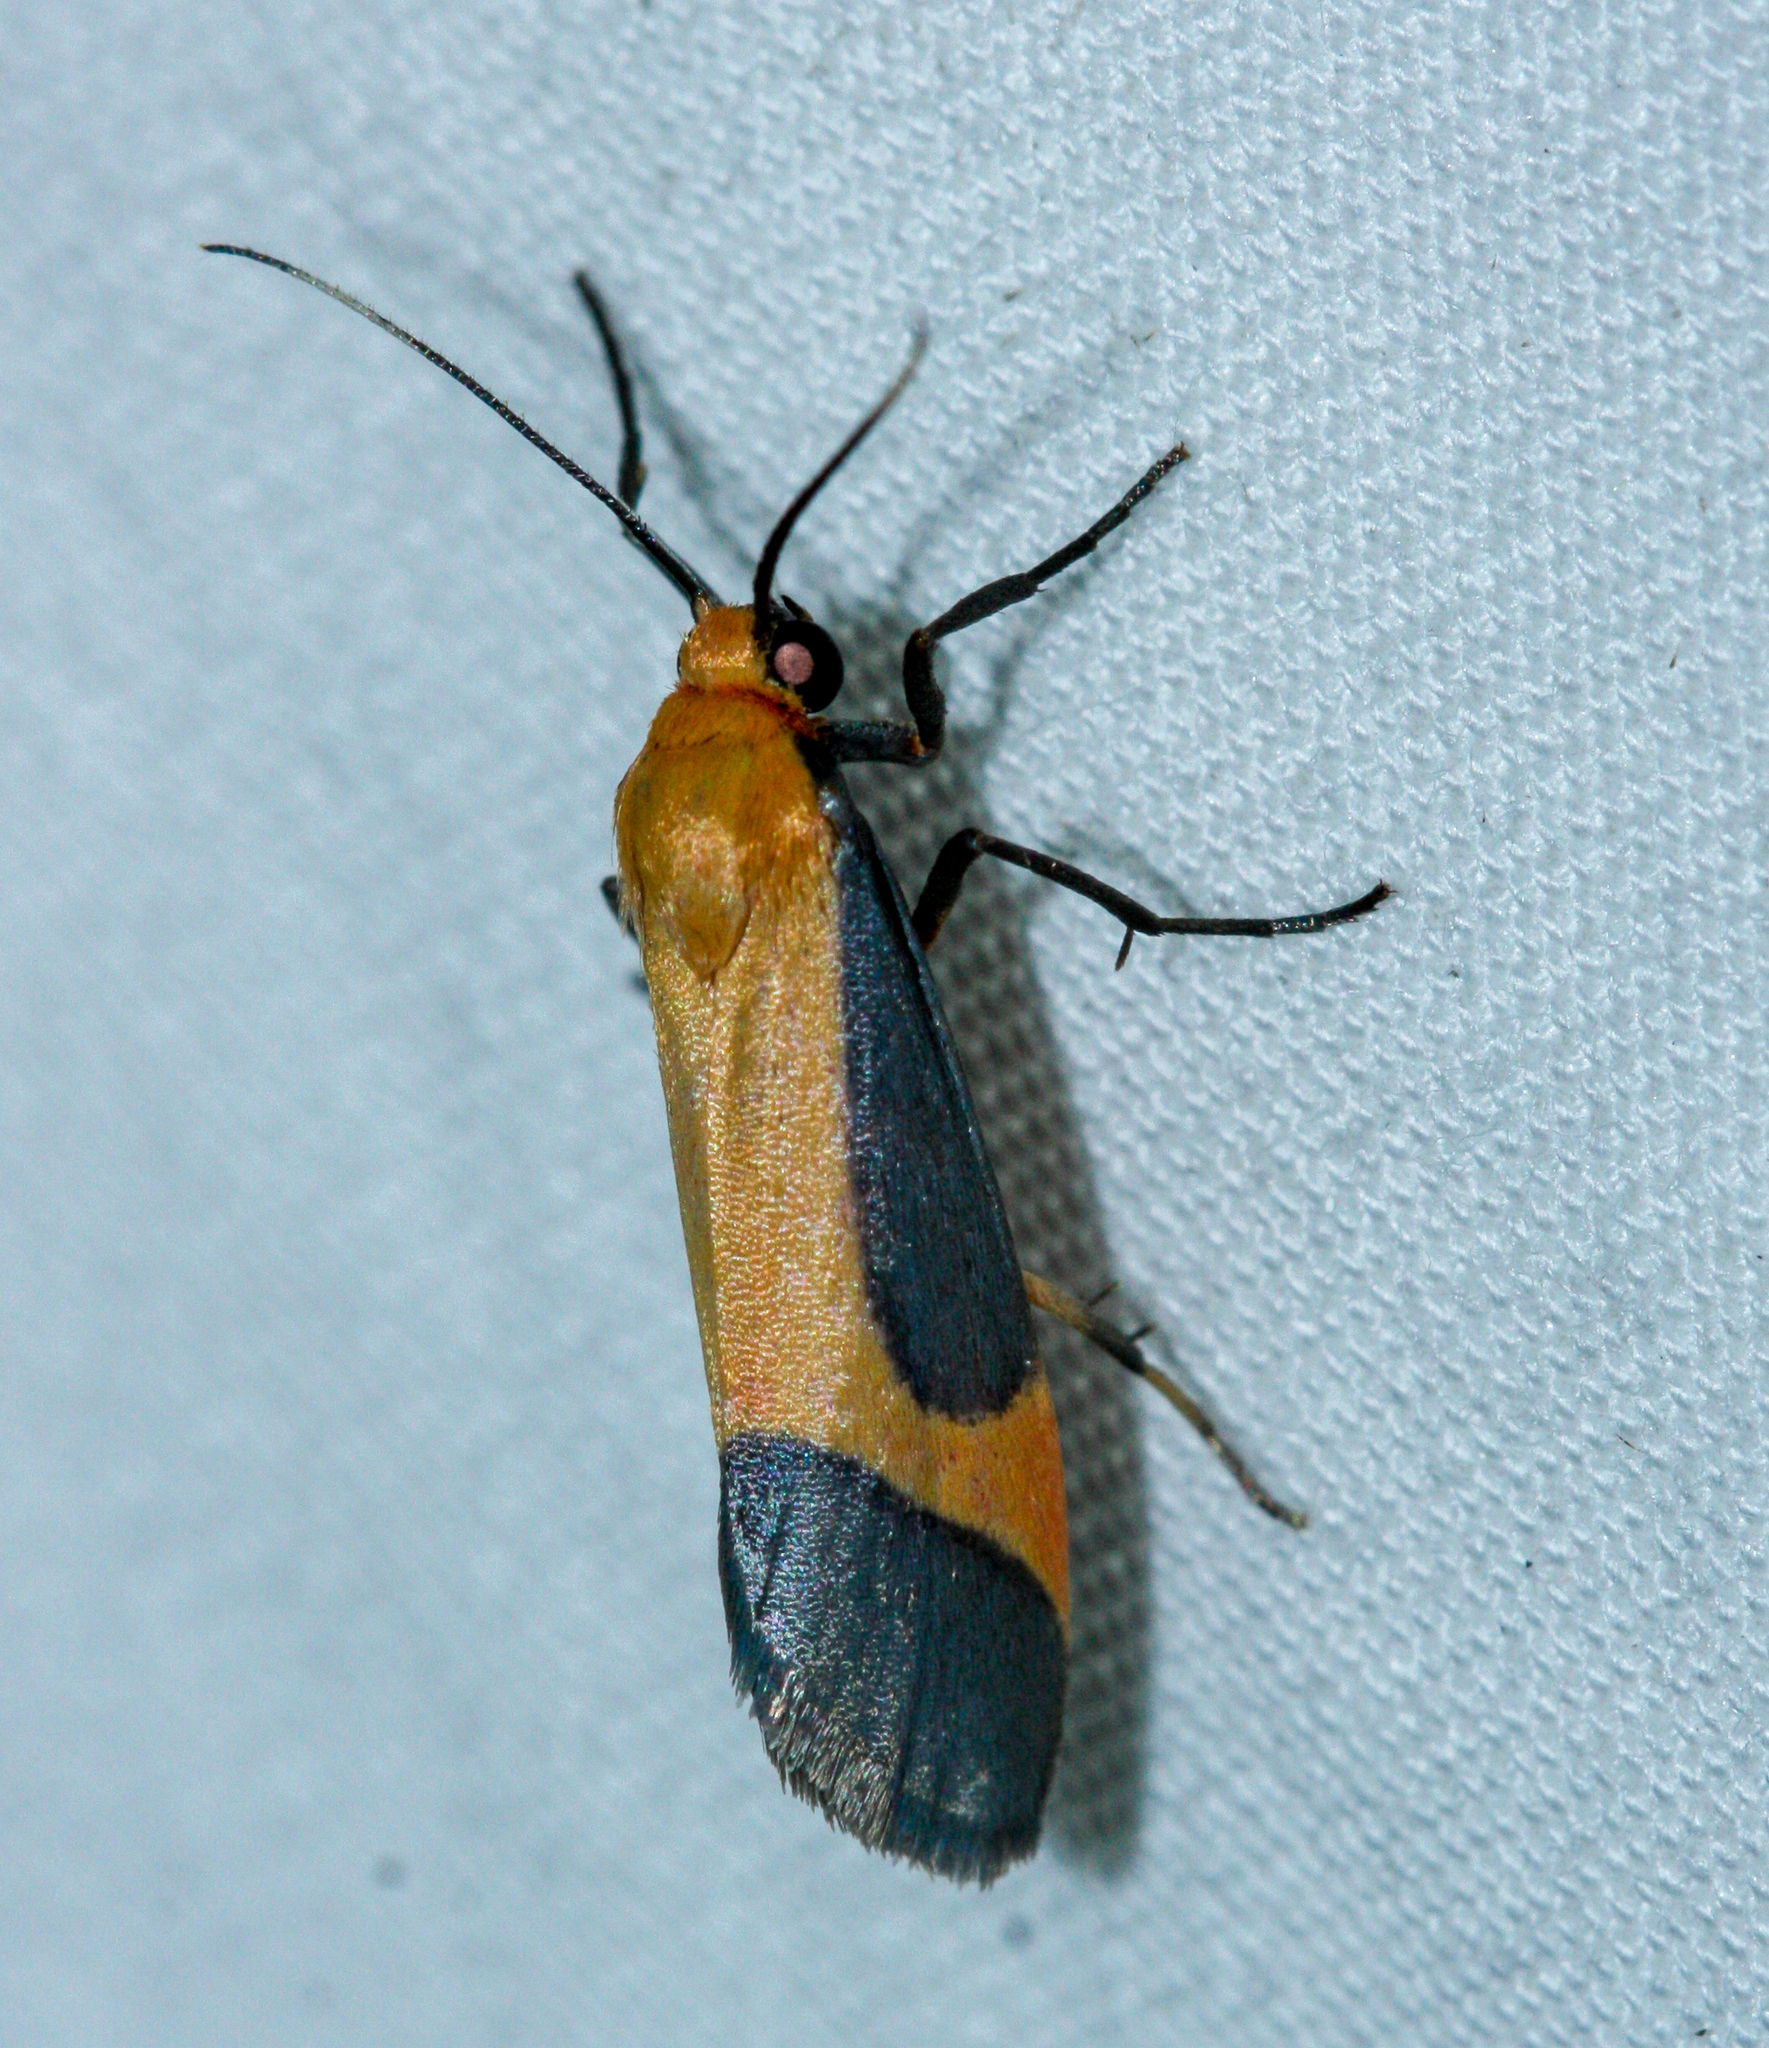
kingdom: Animalia
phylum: Arthropoda
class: Insecta
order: Lepidoptera
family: Erebidae
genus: Cisthene
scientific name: Cisthene angelus
